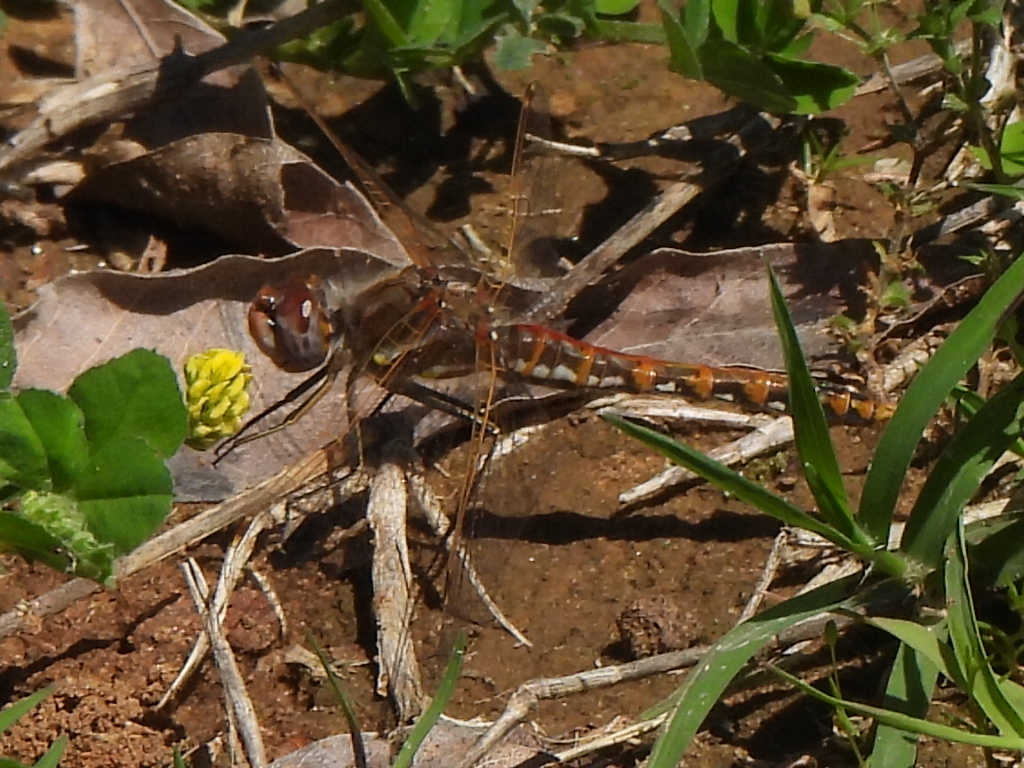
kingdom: Animalia
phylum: Arthropoda
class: Insecta
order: Odonata
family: Libellulidae
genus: Sympetrum
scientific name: Sympetrum corruptum
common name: Variegated meadowhawk
